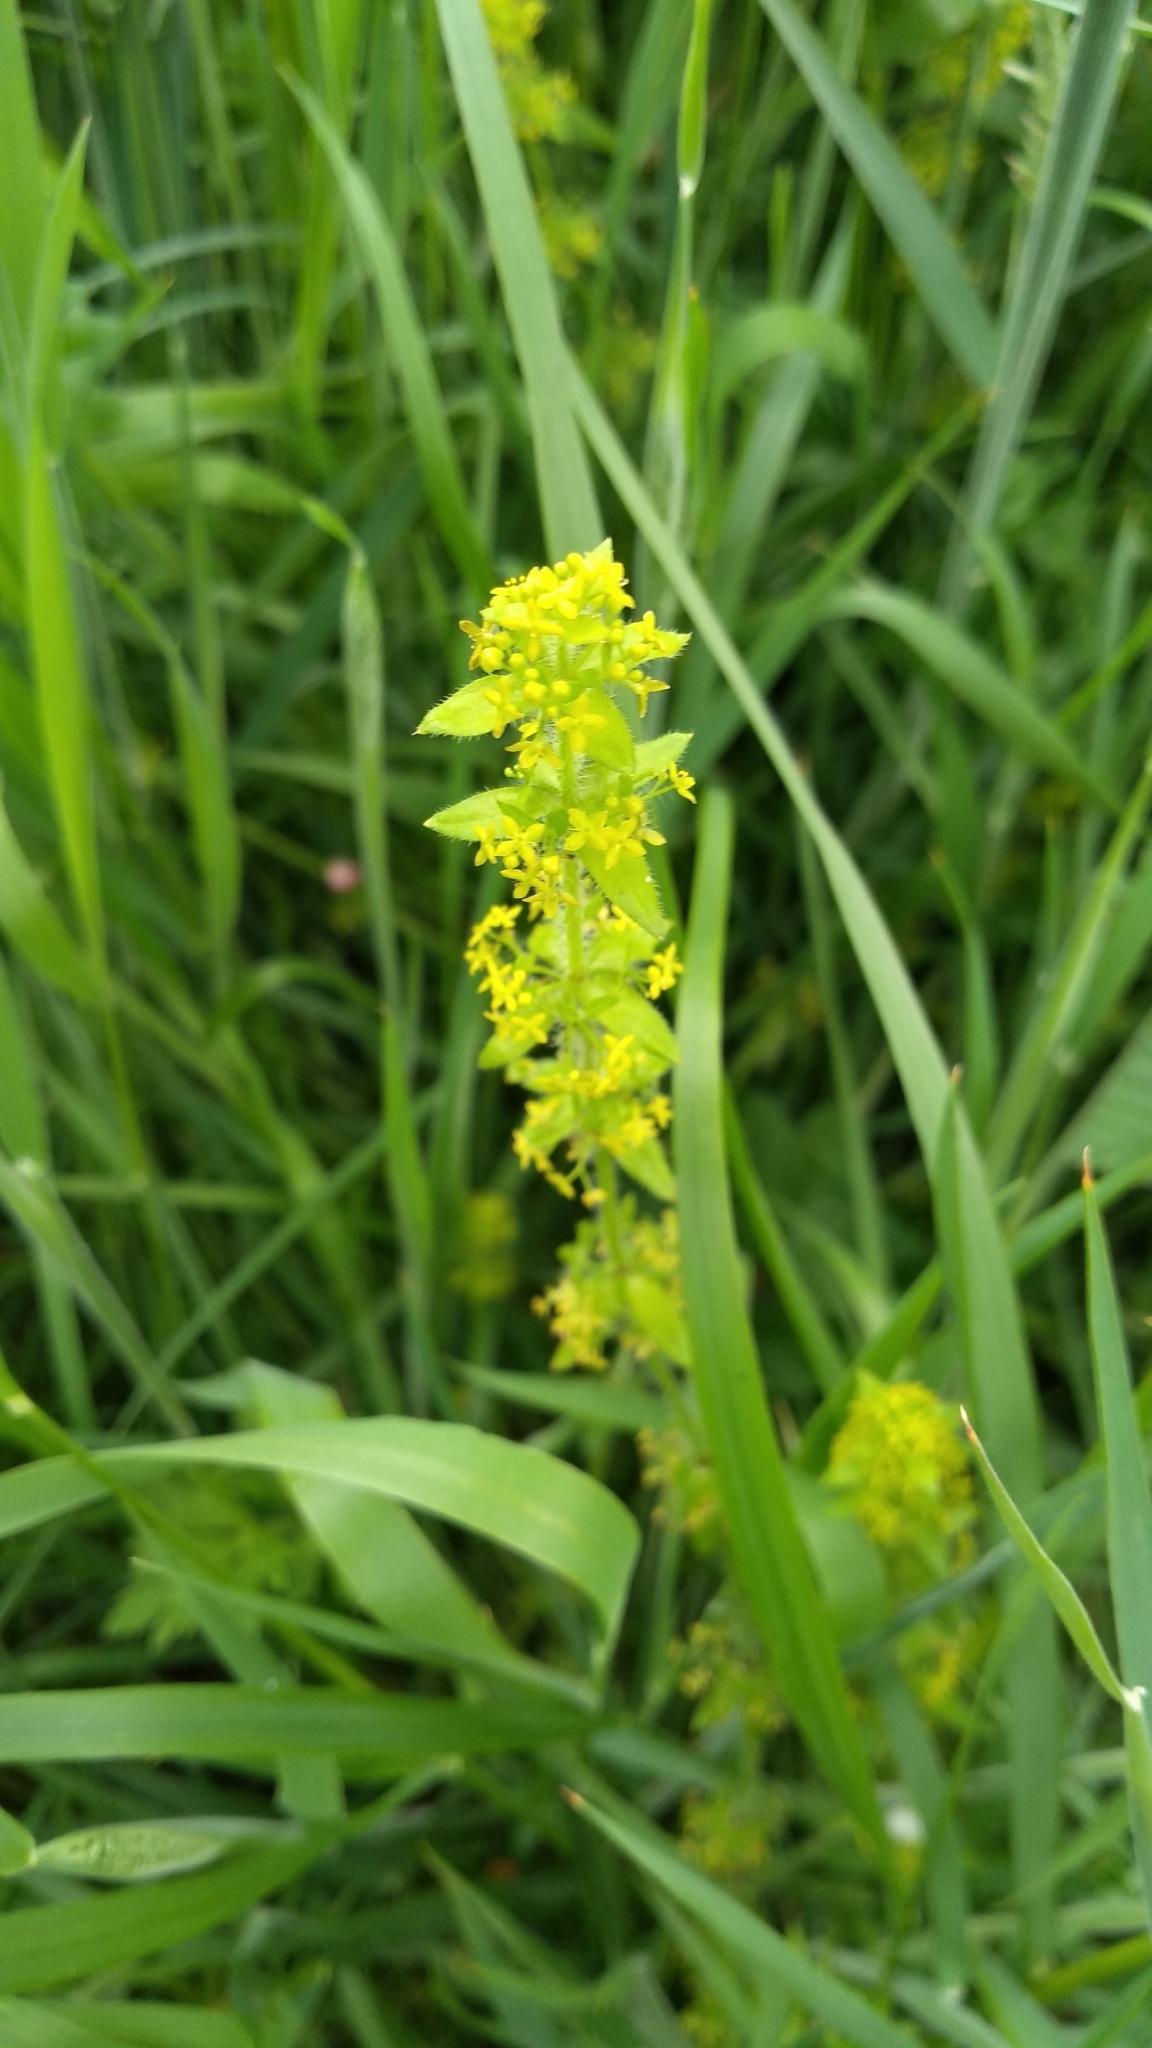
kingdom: Plantae
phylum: Tracheophyta
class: Magnoliopsida
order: Gentianales
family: Rubiaceae
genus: Cruciata
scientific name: Cruciata laevipes
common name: Crosswort
